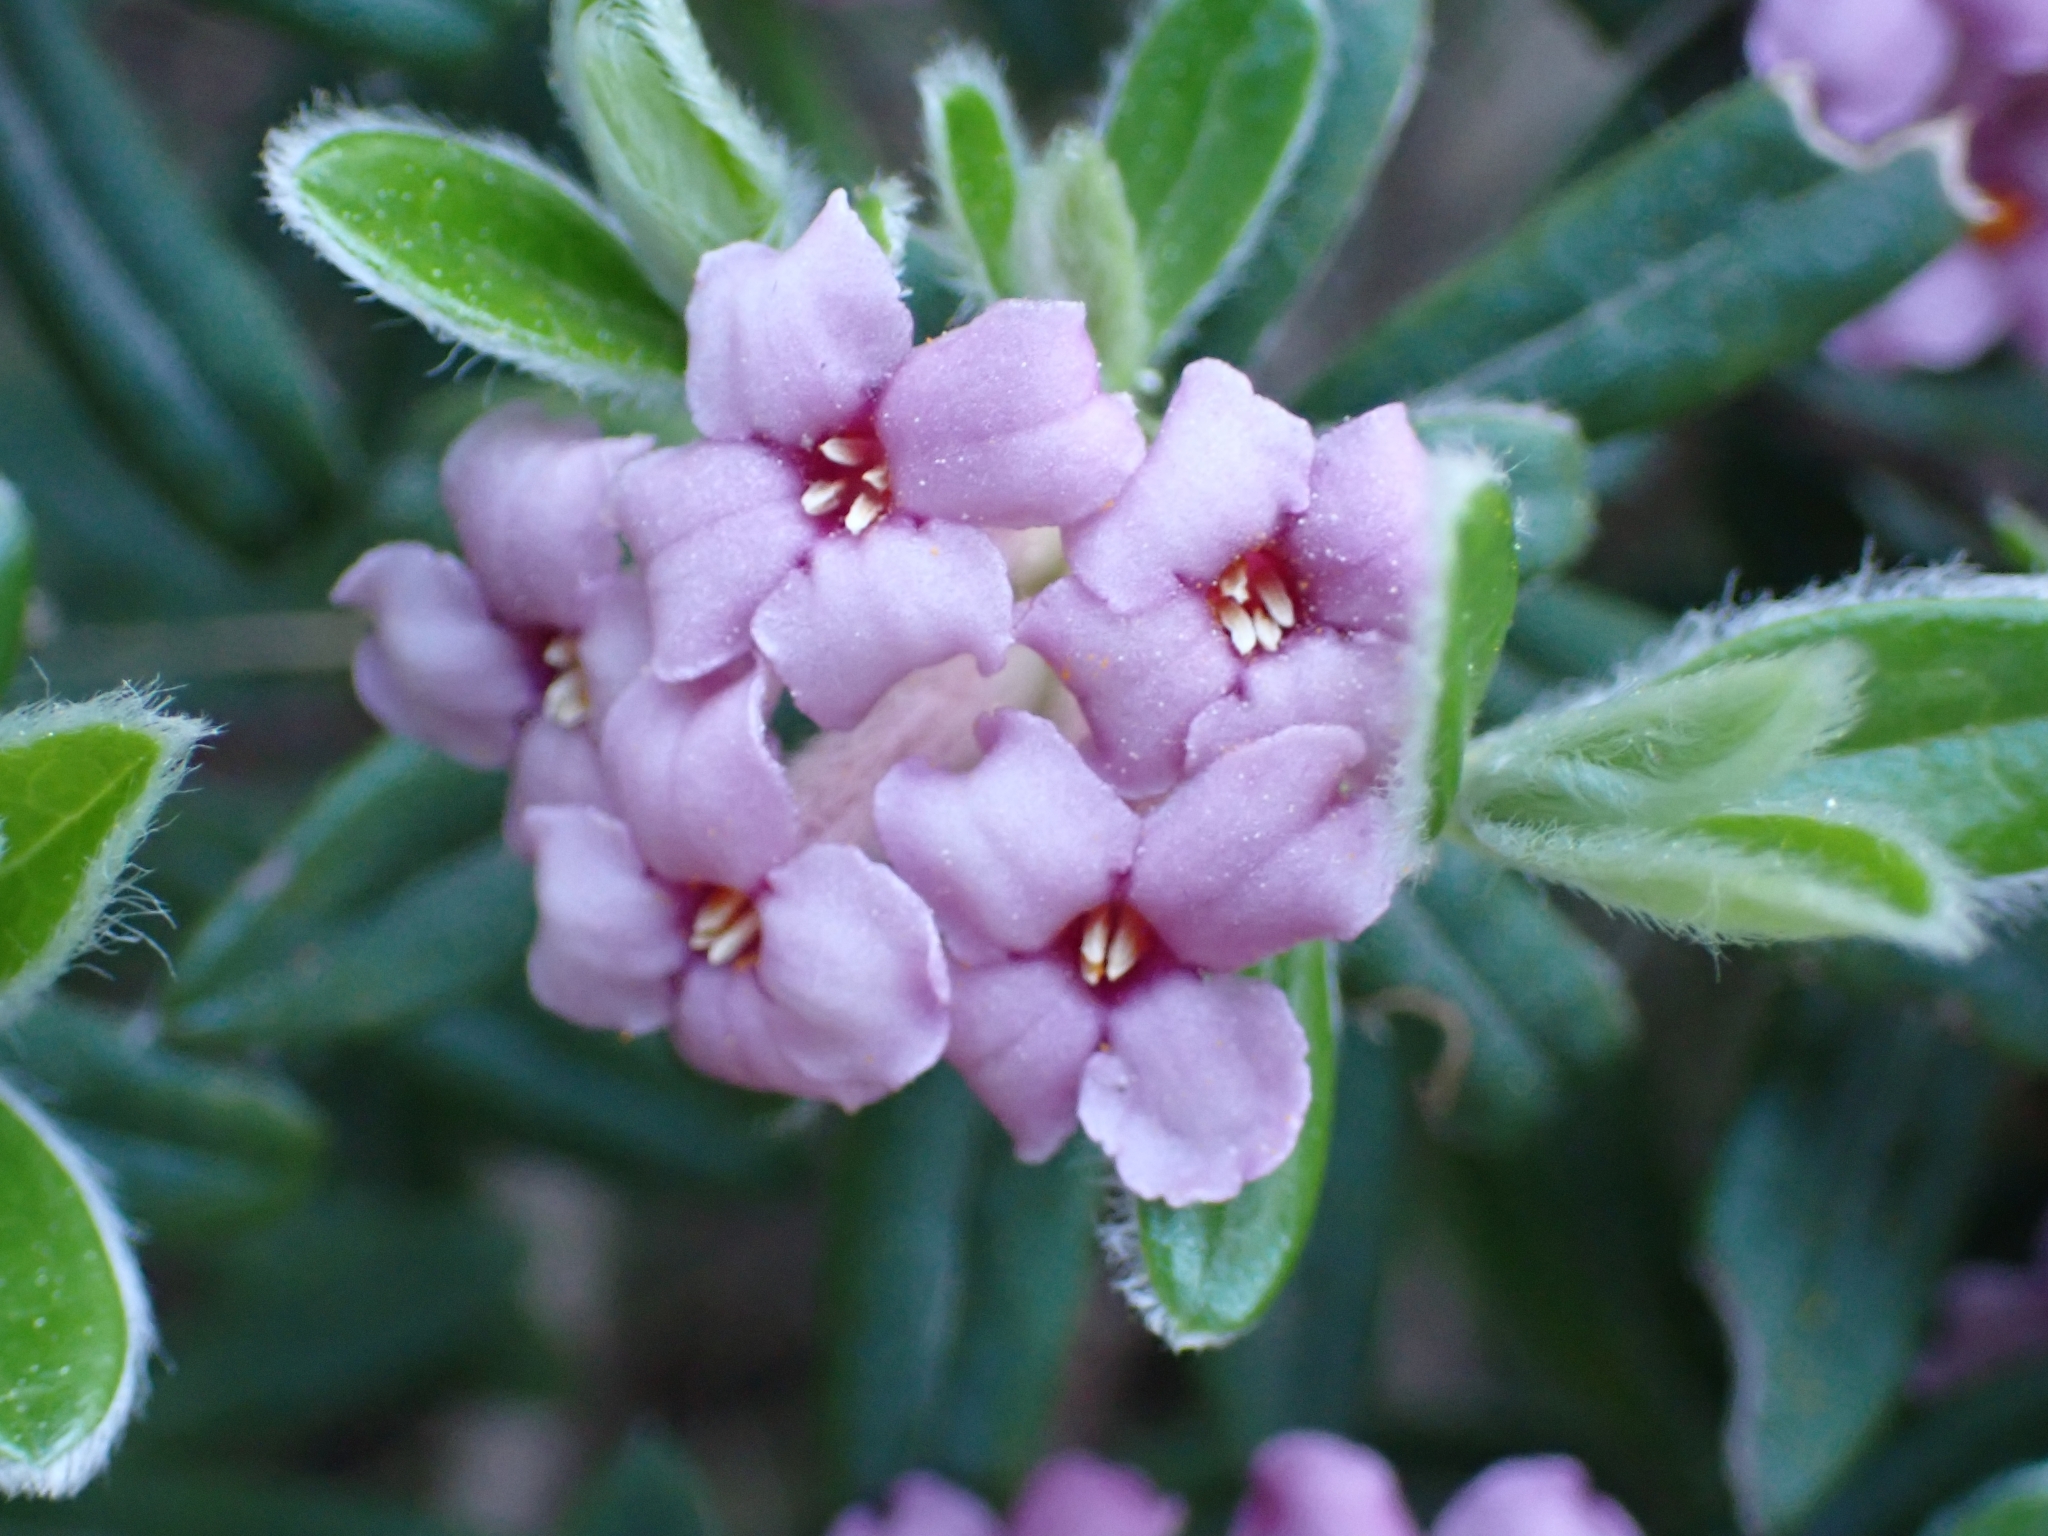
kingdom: Plantae
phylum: Tracheophyta
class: Magnoliopsida
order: Malvales
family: Thymelaeaceae
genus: Daphne
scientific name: Daphne sericea
